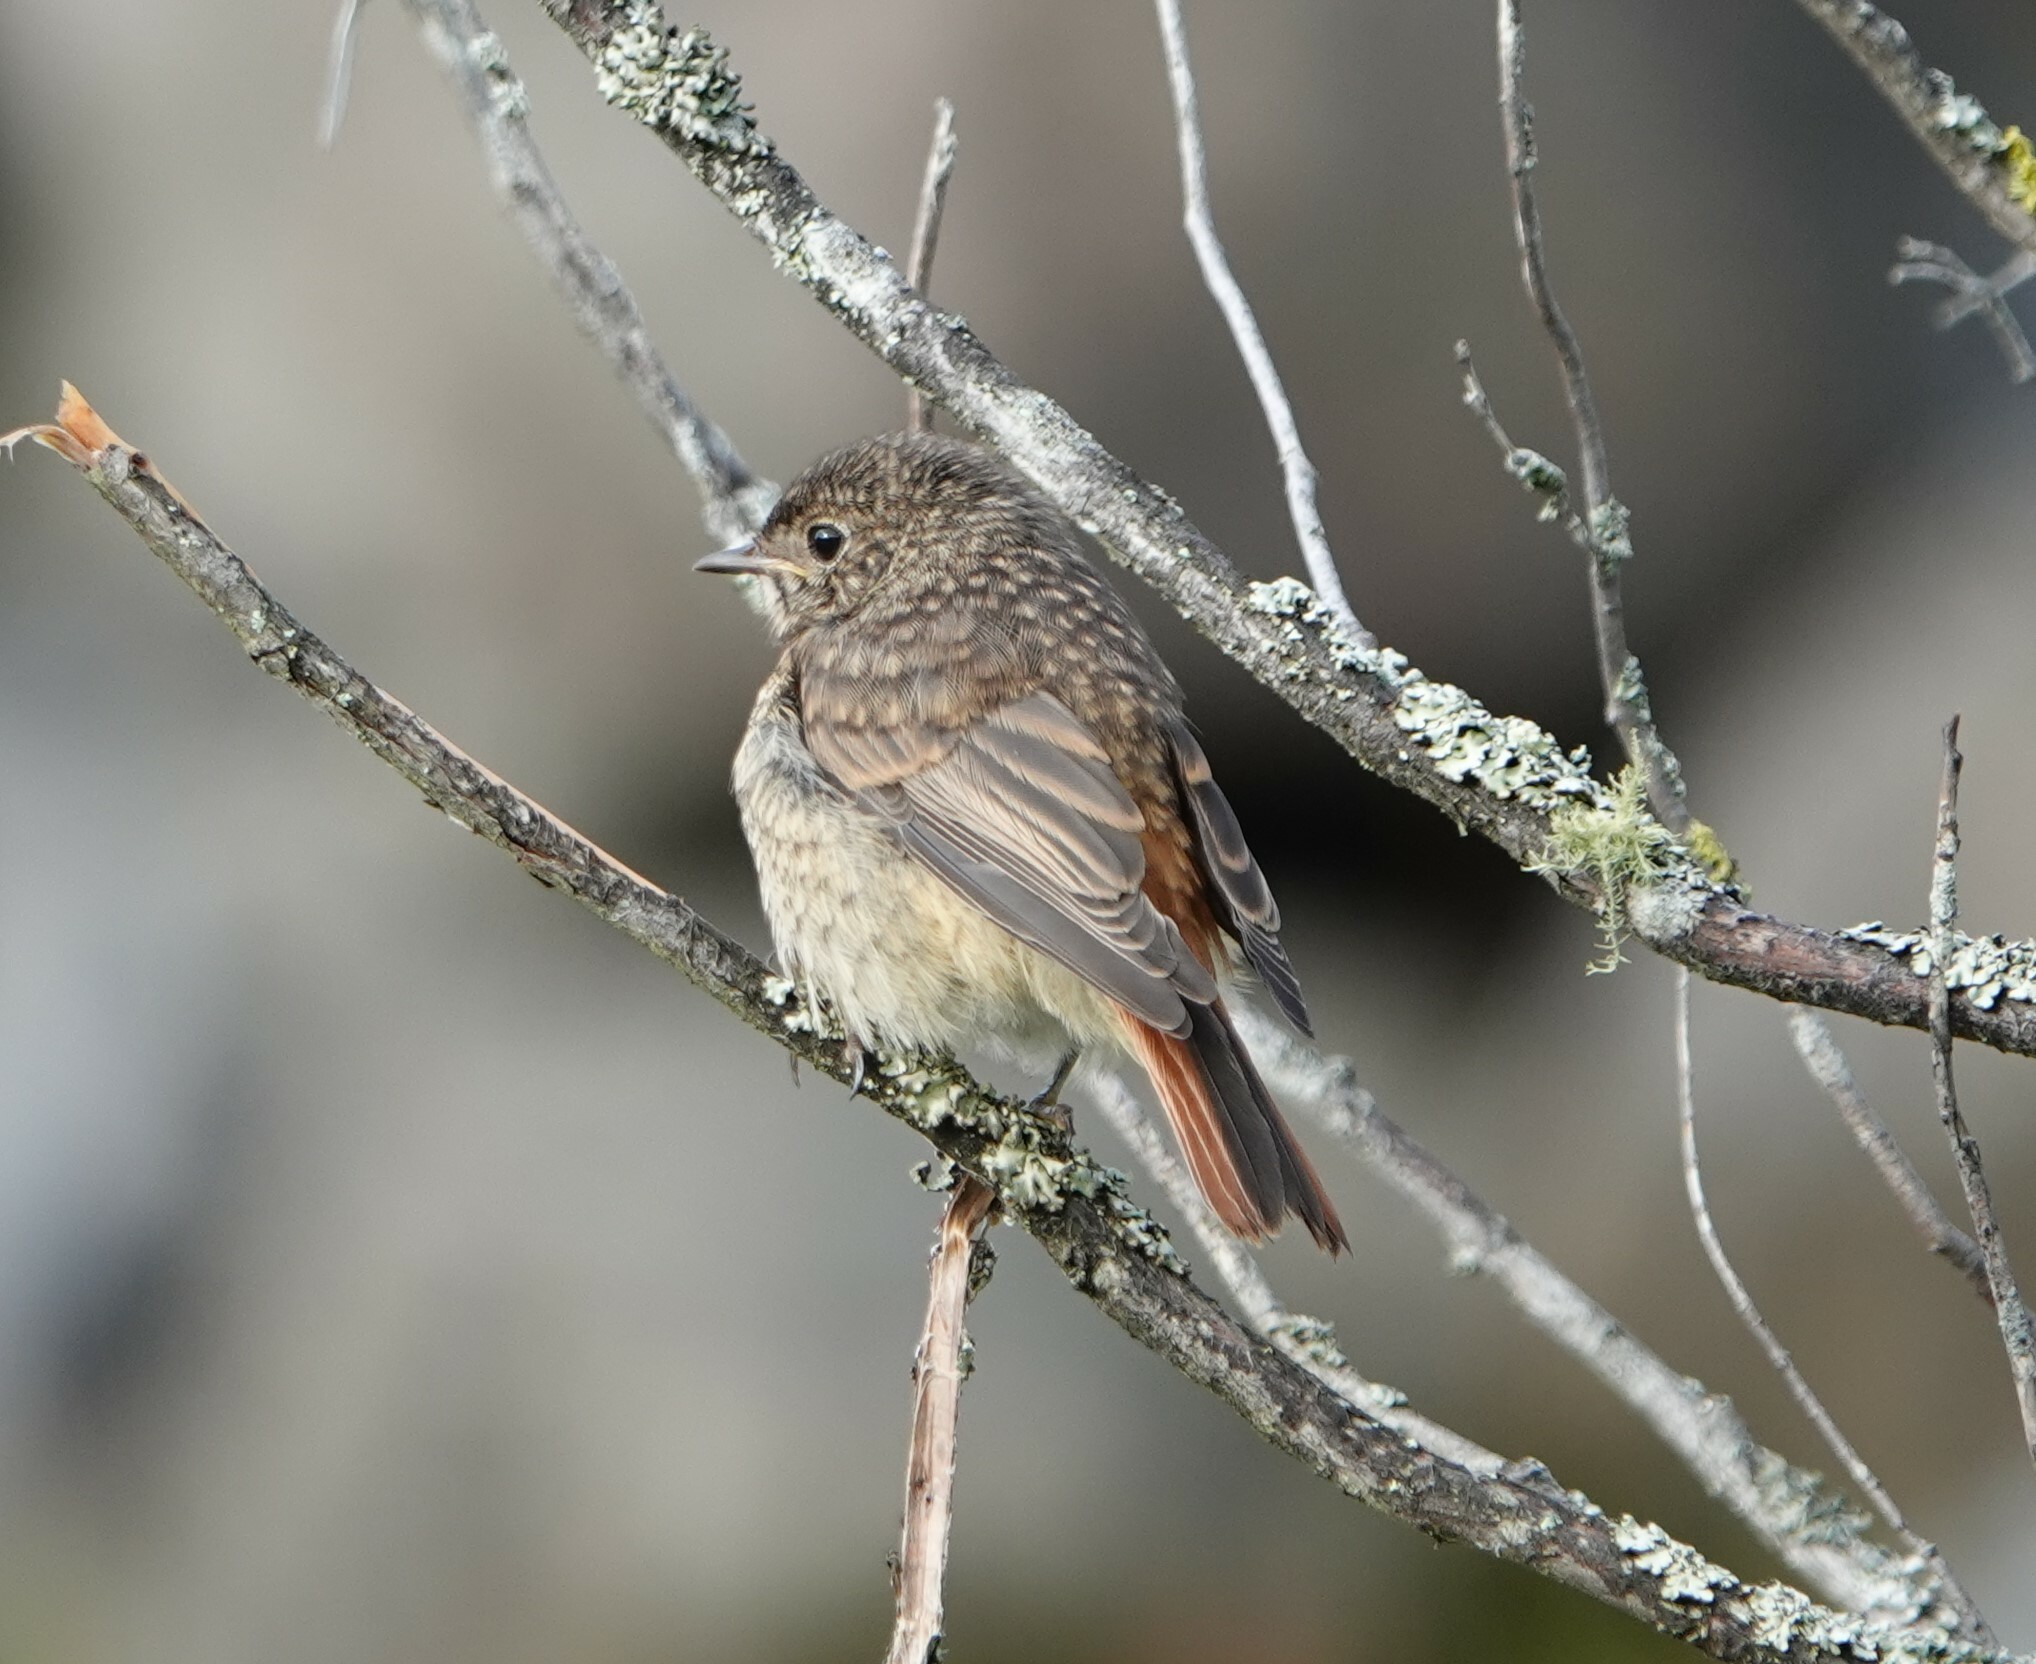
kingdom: Animalia
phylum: Chordata
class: Aves
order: Passeriformes
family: Muscicapidae
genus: Phoenicurus
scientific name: Phoenicurus phoenicurus
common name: Common redstart
